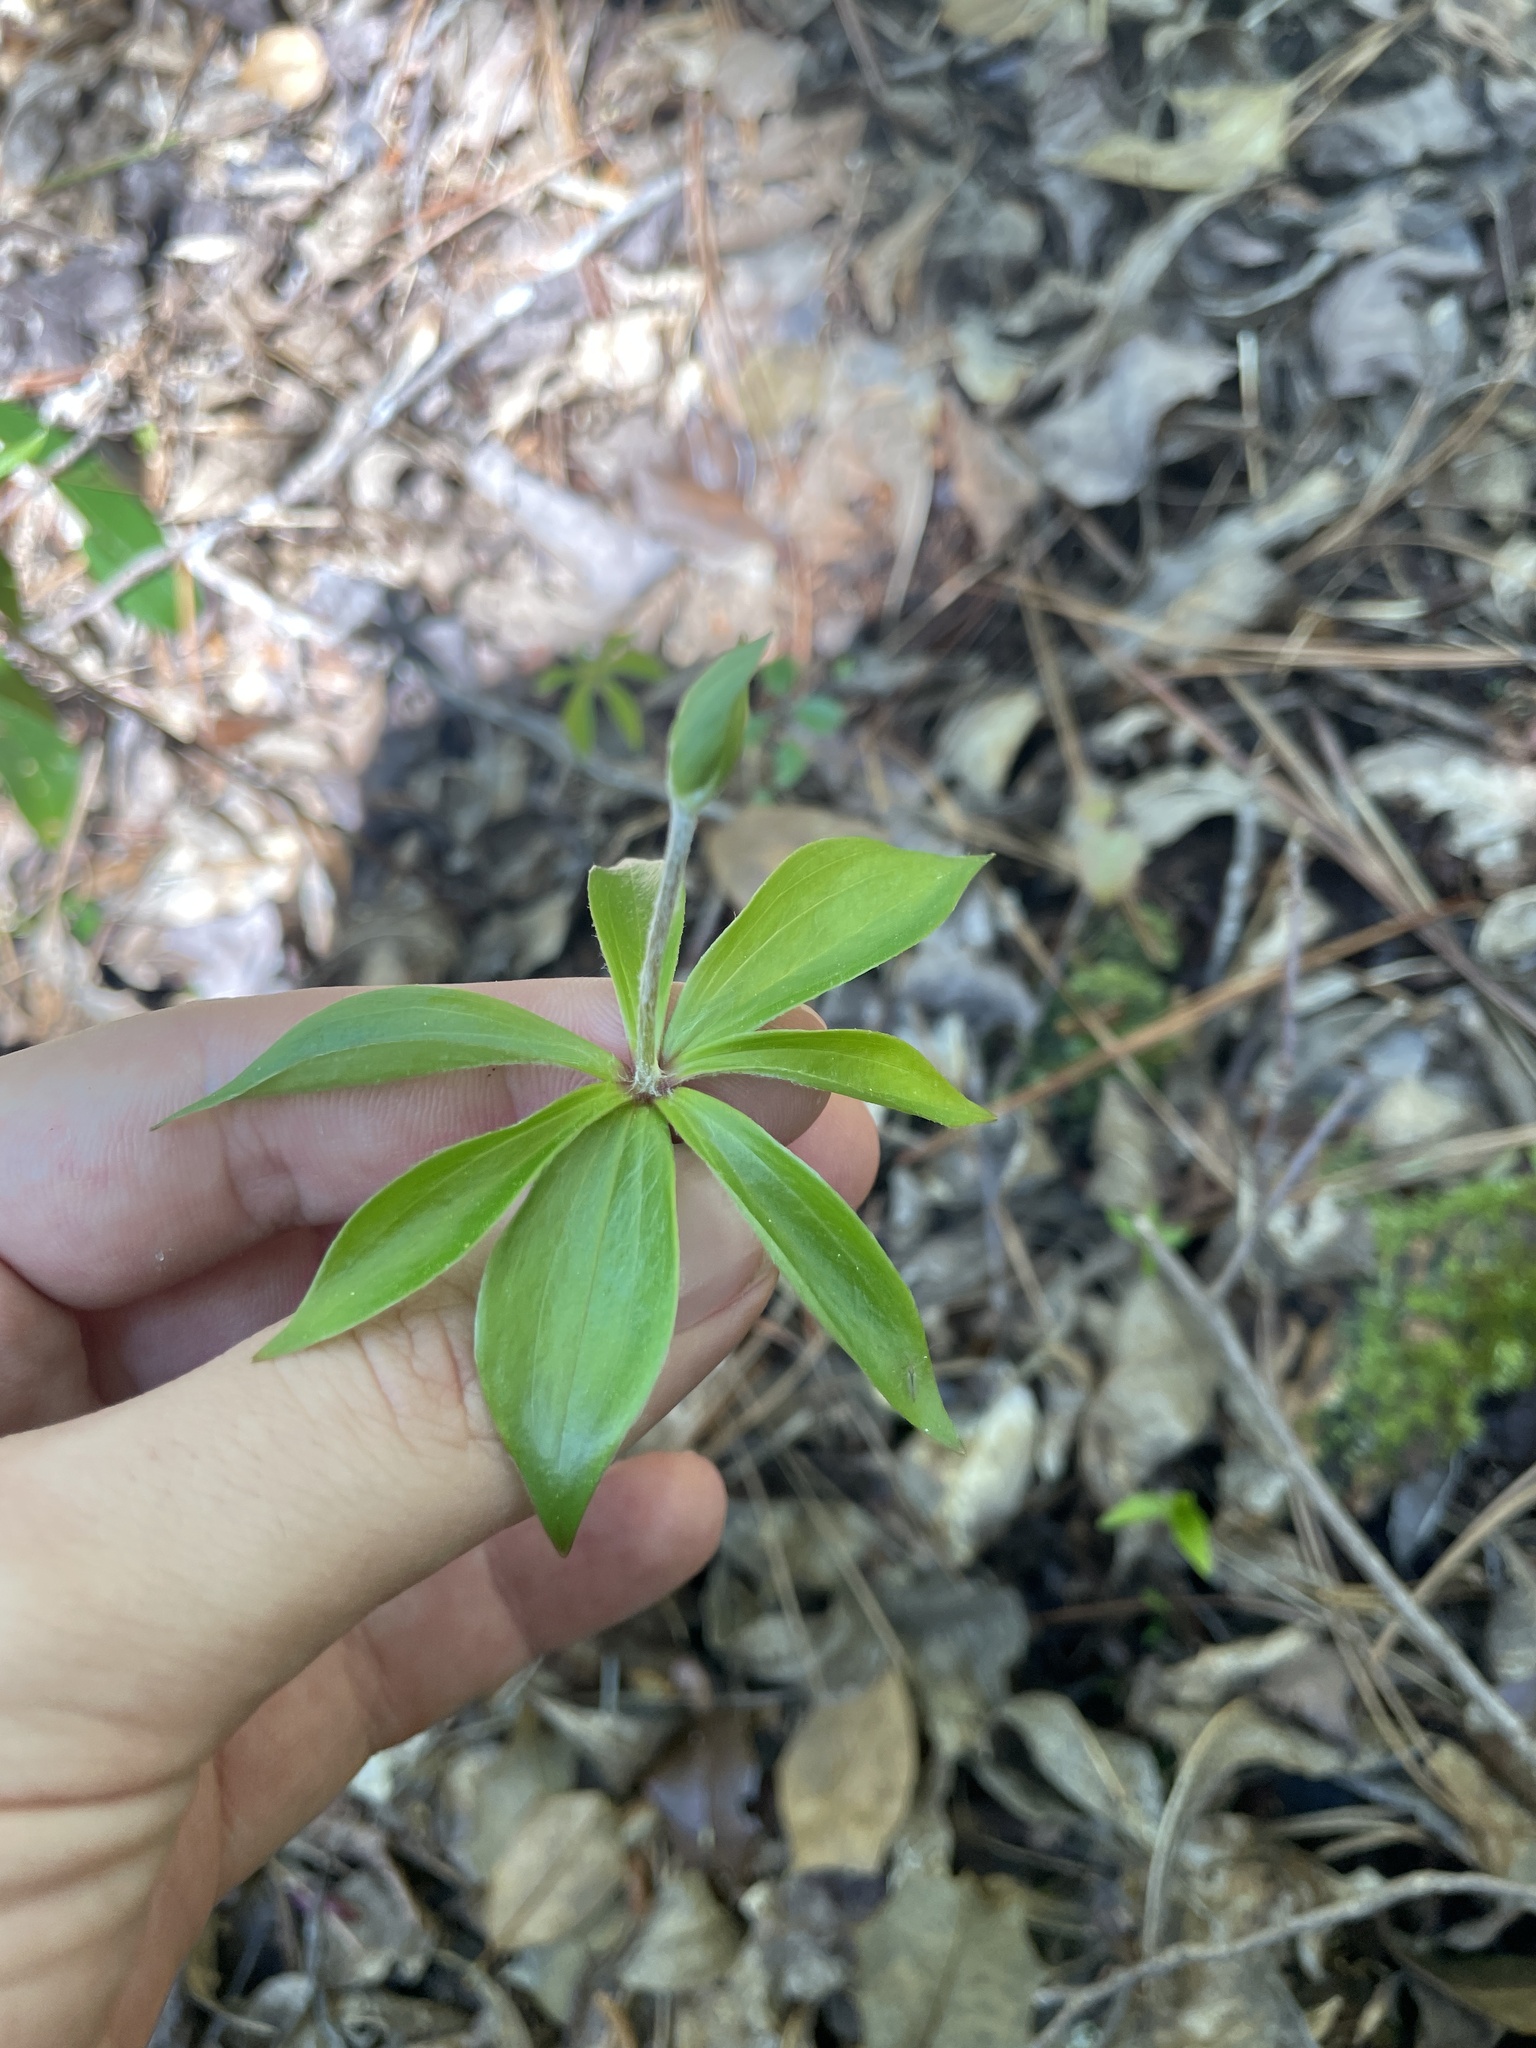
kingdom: Plantae
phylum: Tracheophyta
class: Liliopsida
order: Liliales
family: Liliaceae
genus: Medeola
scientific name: Medeola virginiana
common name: Indian cucumber-root
